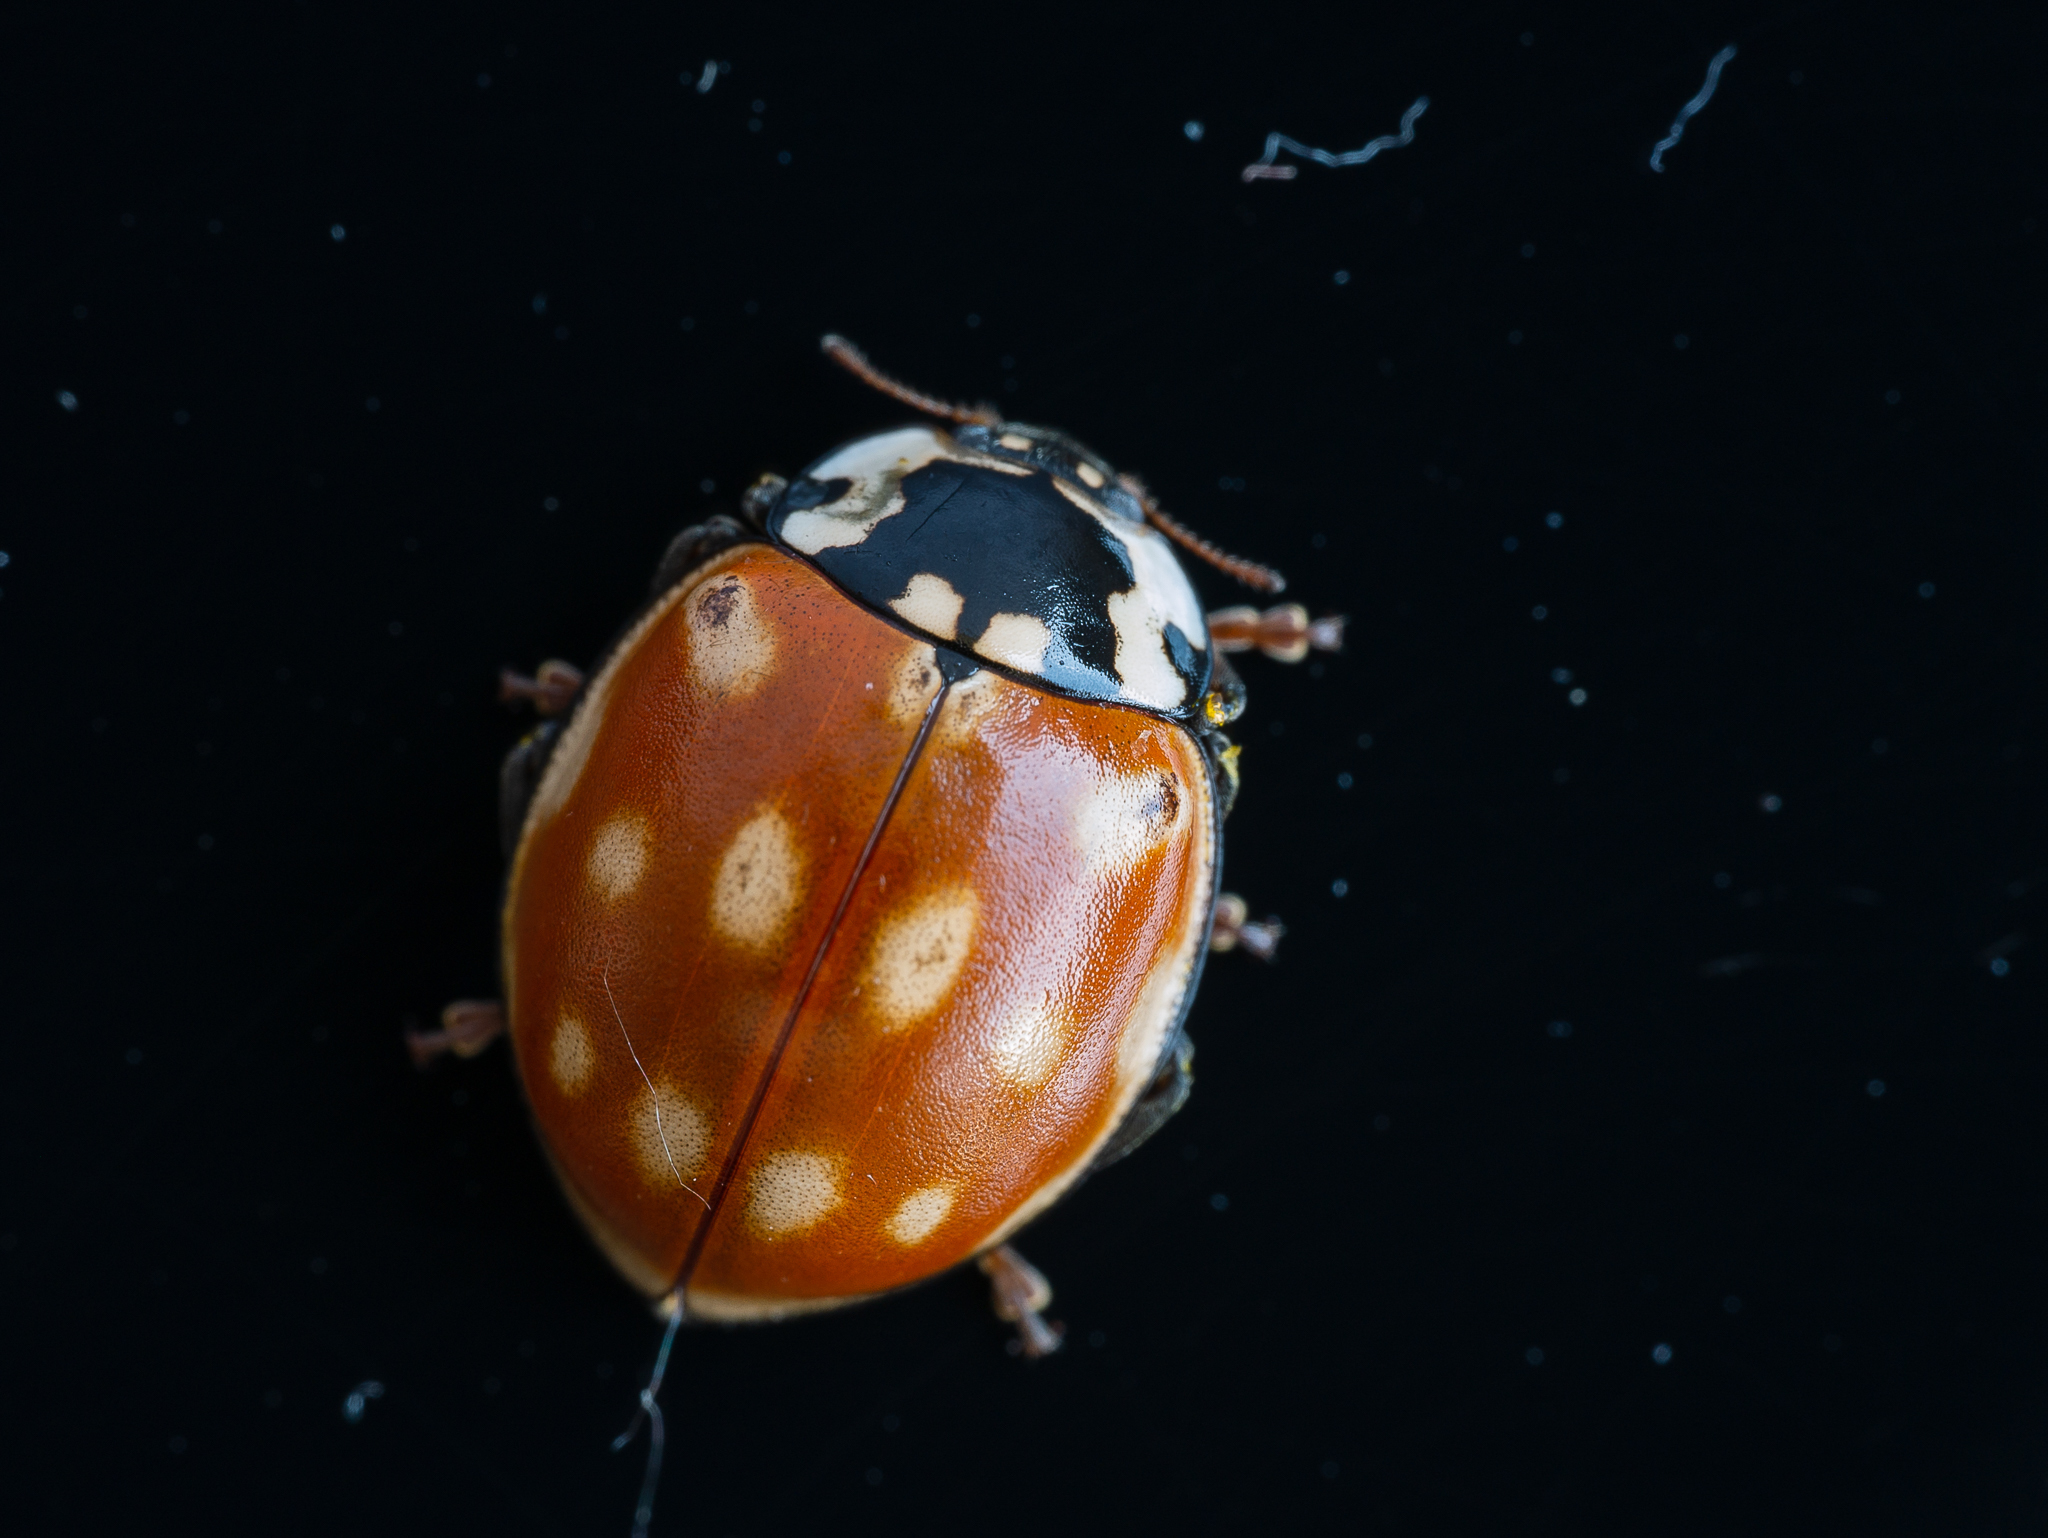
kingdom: Animalia
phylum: Arthropoda
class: Insecta
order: Coleoptera
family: Coccinellidae
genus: Anatis
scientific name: Anatis ocellata
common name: Eyed ladybird
